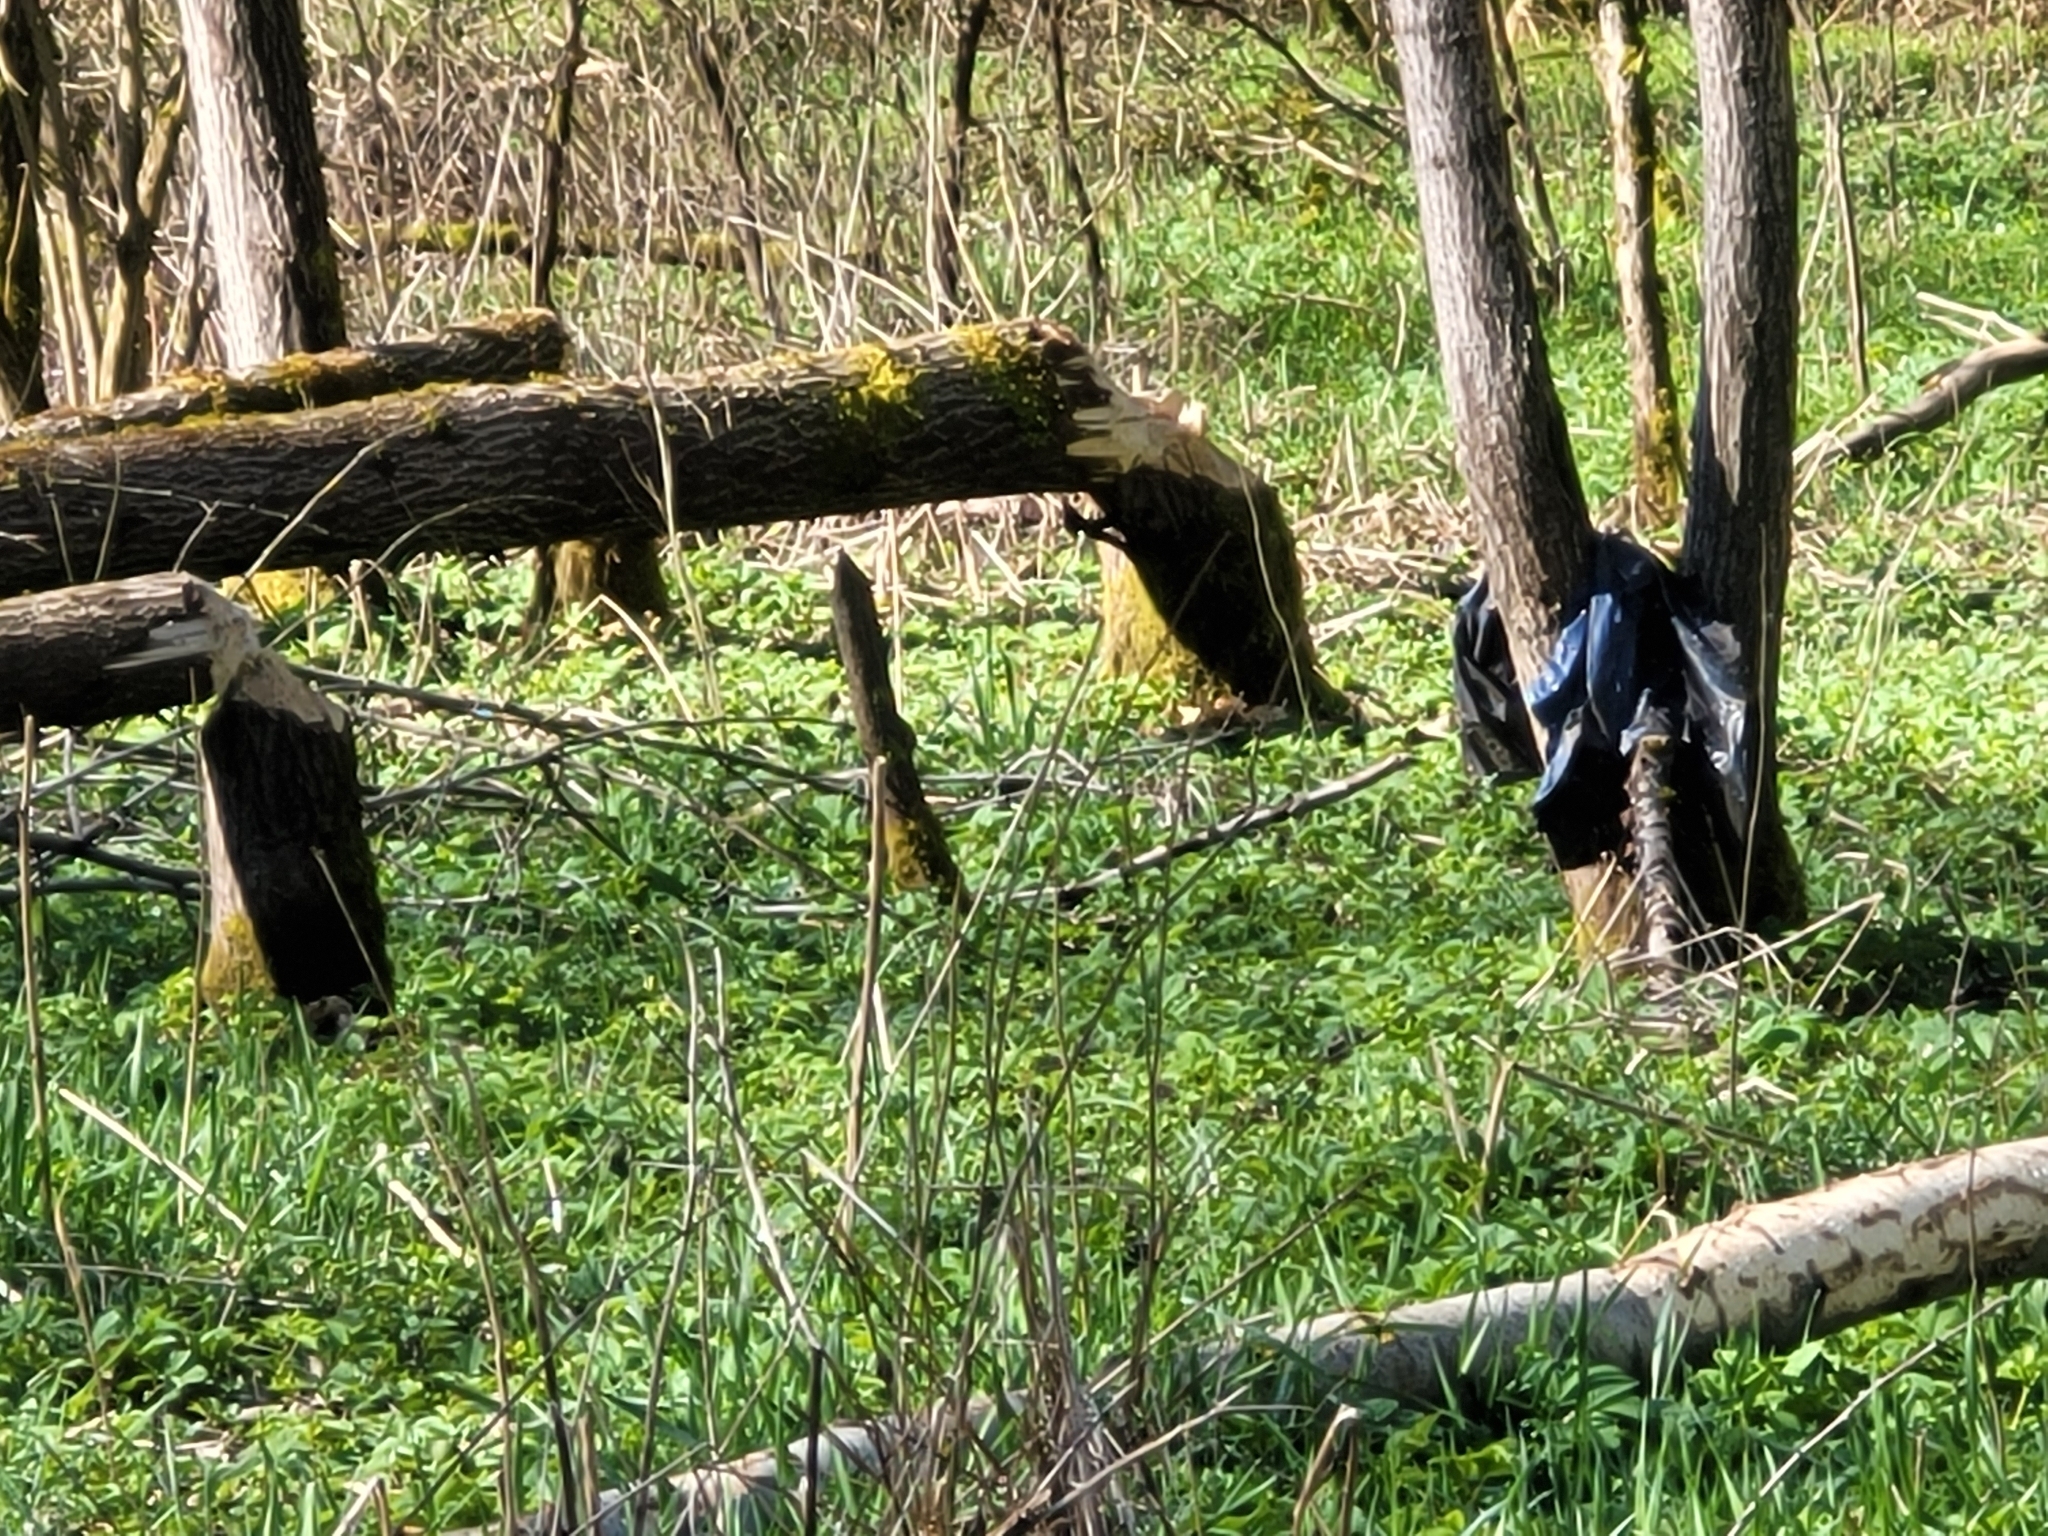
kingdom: Animalia
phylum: Chordata
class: Mammalia
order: Rodentia
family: Castoridae
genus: Castor
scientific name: Castor fiber
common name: Eurasian beaver
